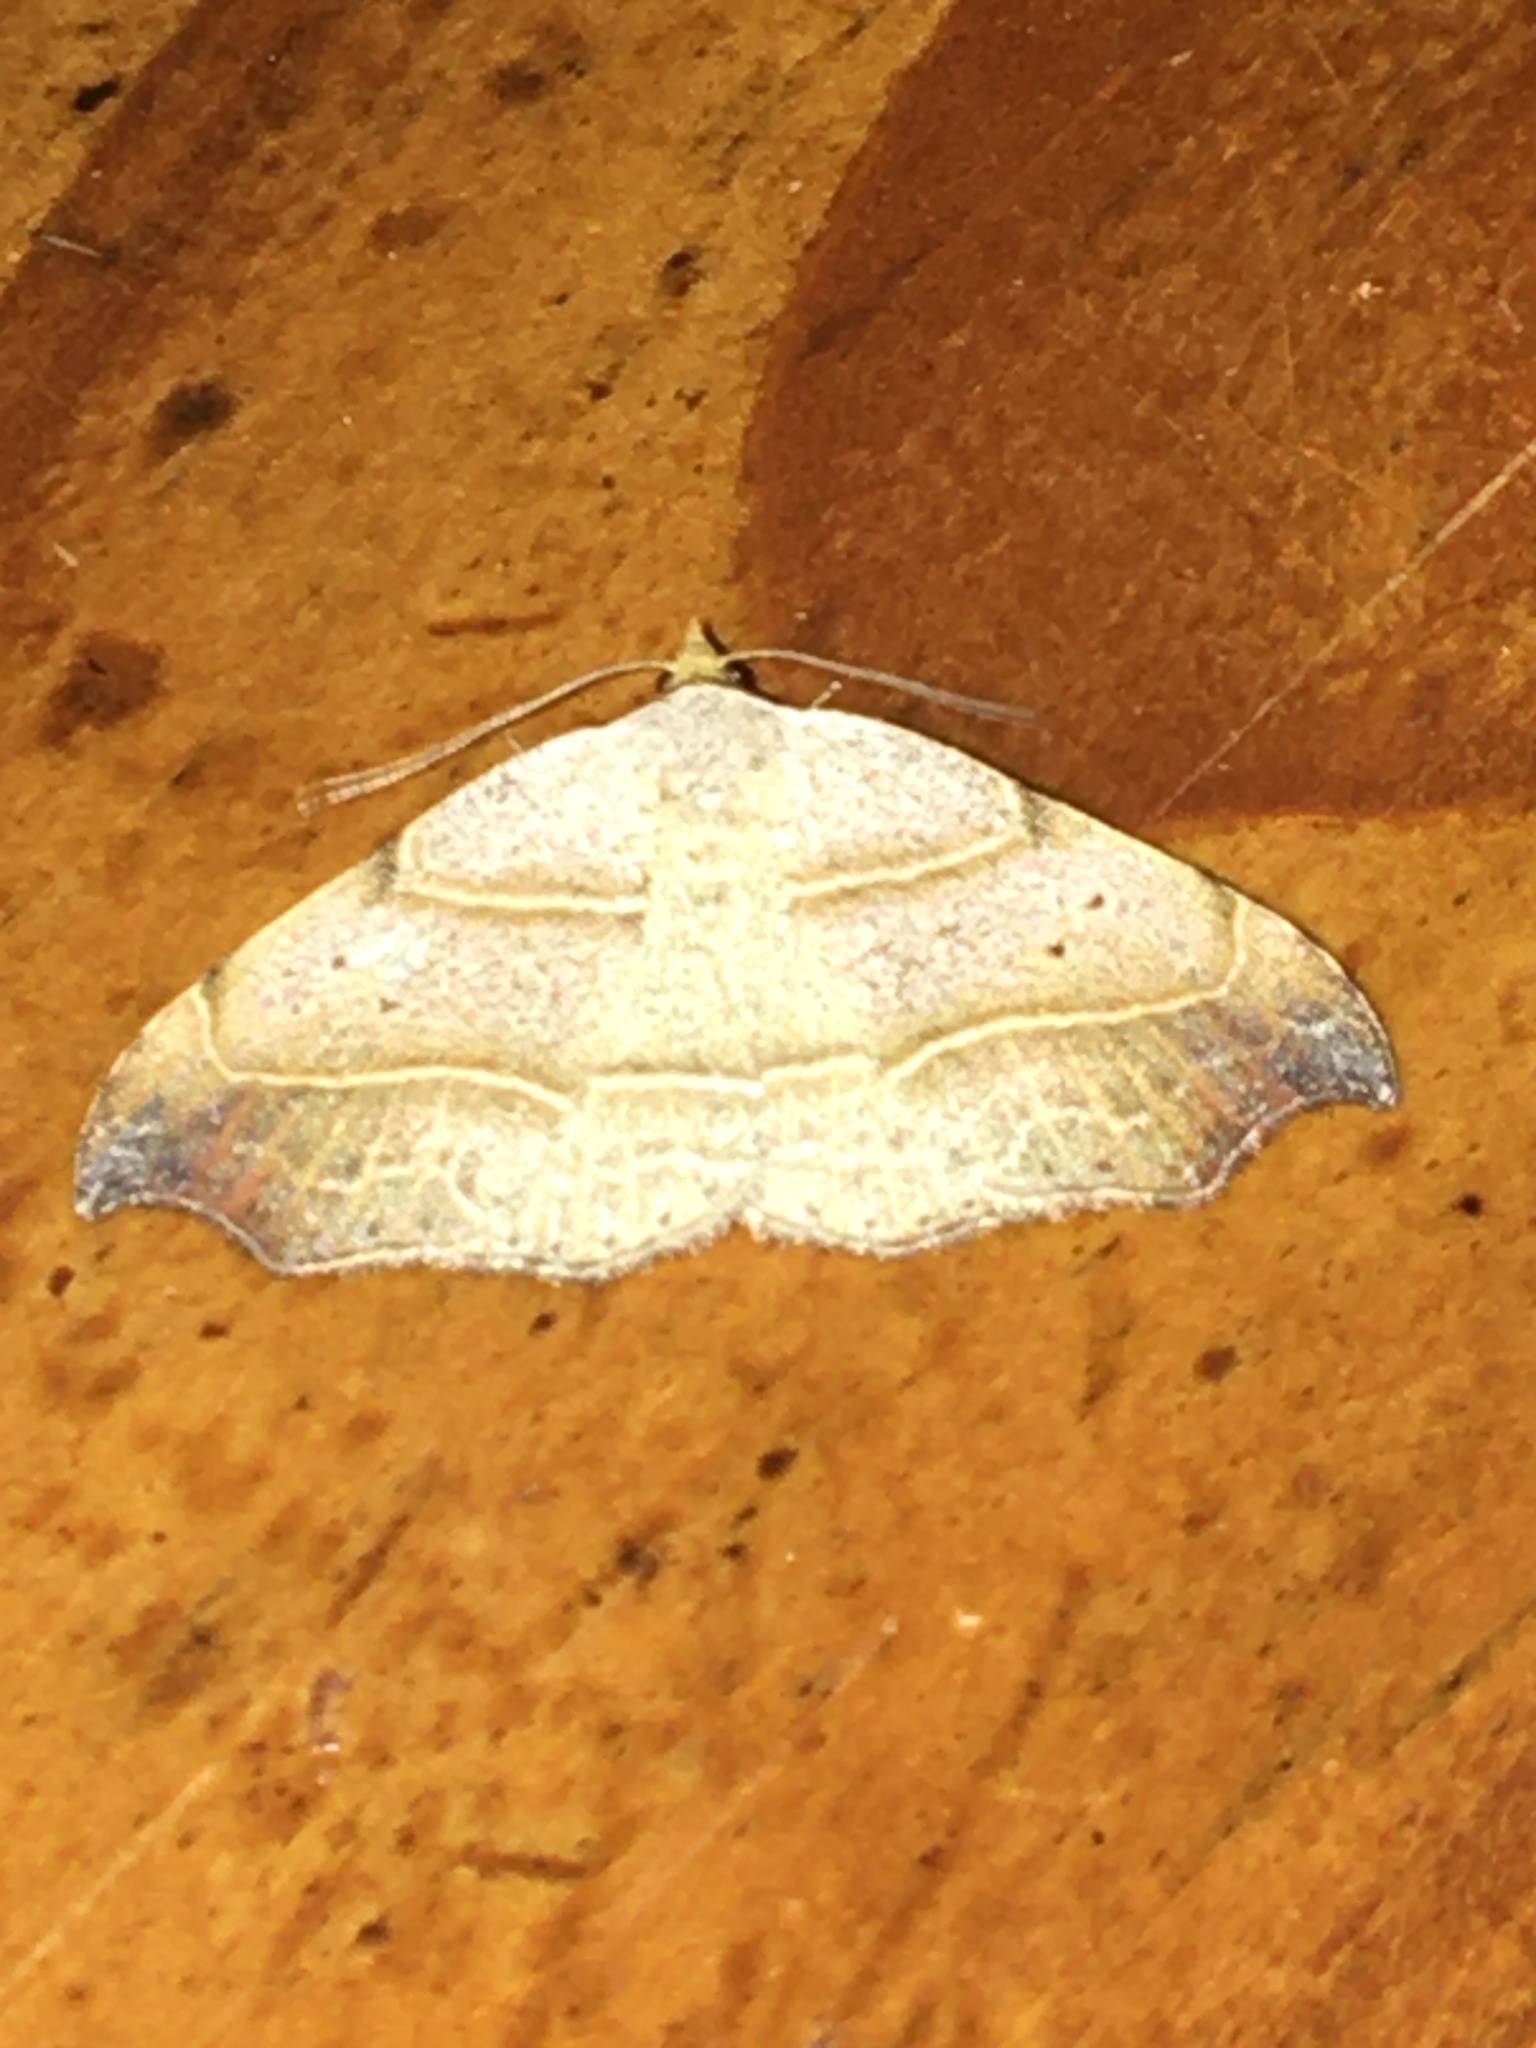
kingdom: Animalia
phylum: Arthropoda
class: Insecta
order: Lepidoptera
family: Erebidae
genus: Laspeyria
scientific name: Laspeyria flexula
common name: Beautiful hook-tip
